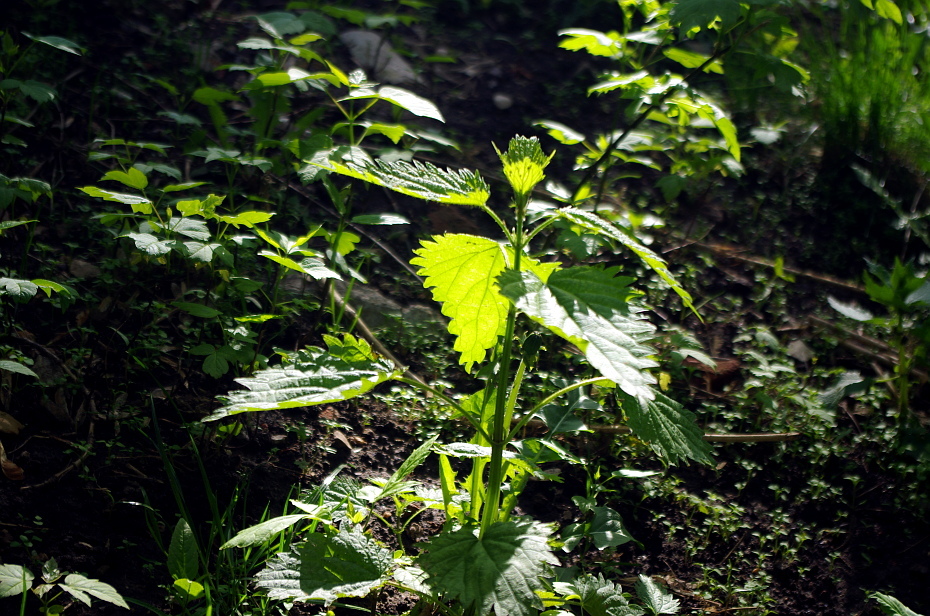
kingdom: Plantae
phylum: Tracheophyta
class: Magnoliopsida
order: Rosales
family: Urticaceae
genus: Urtica
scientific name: Urtica dioica
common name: Common nettle
